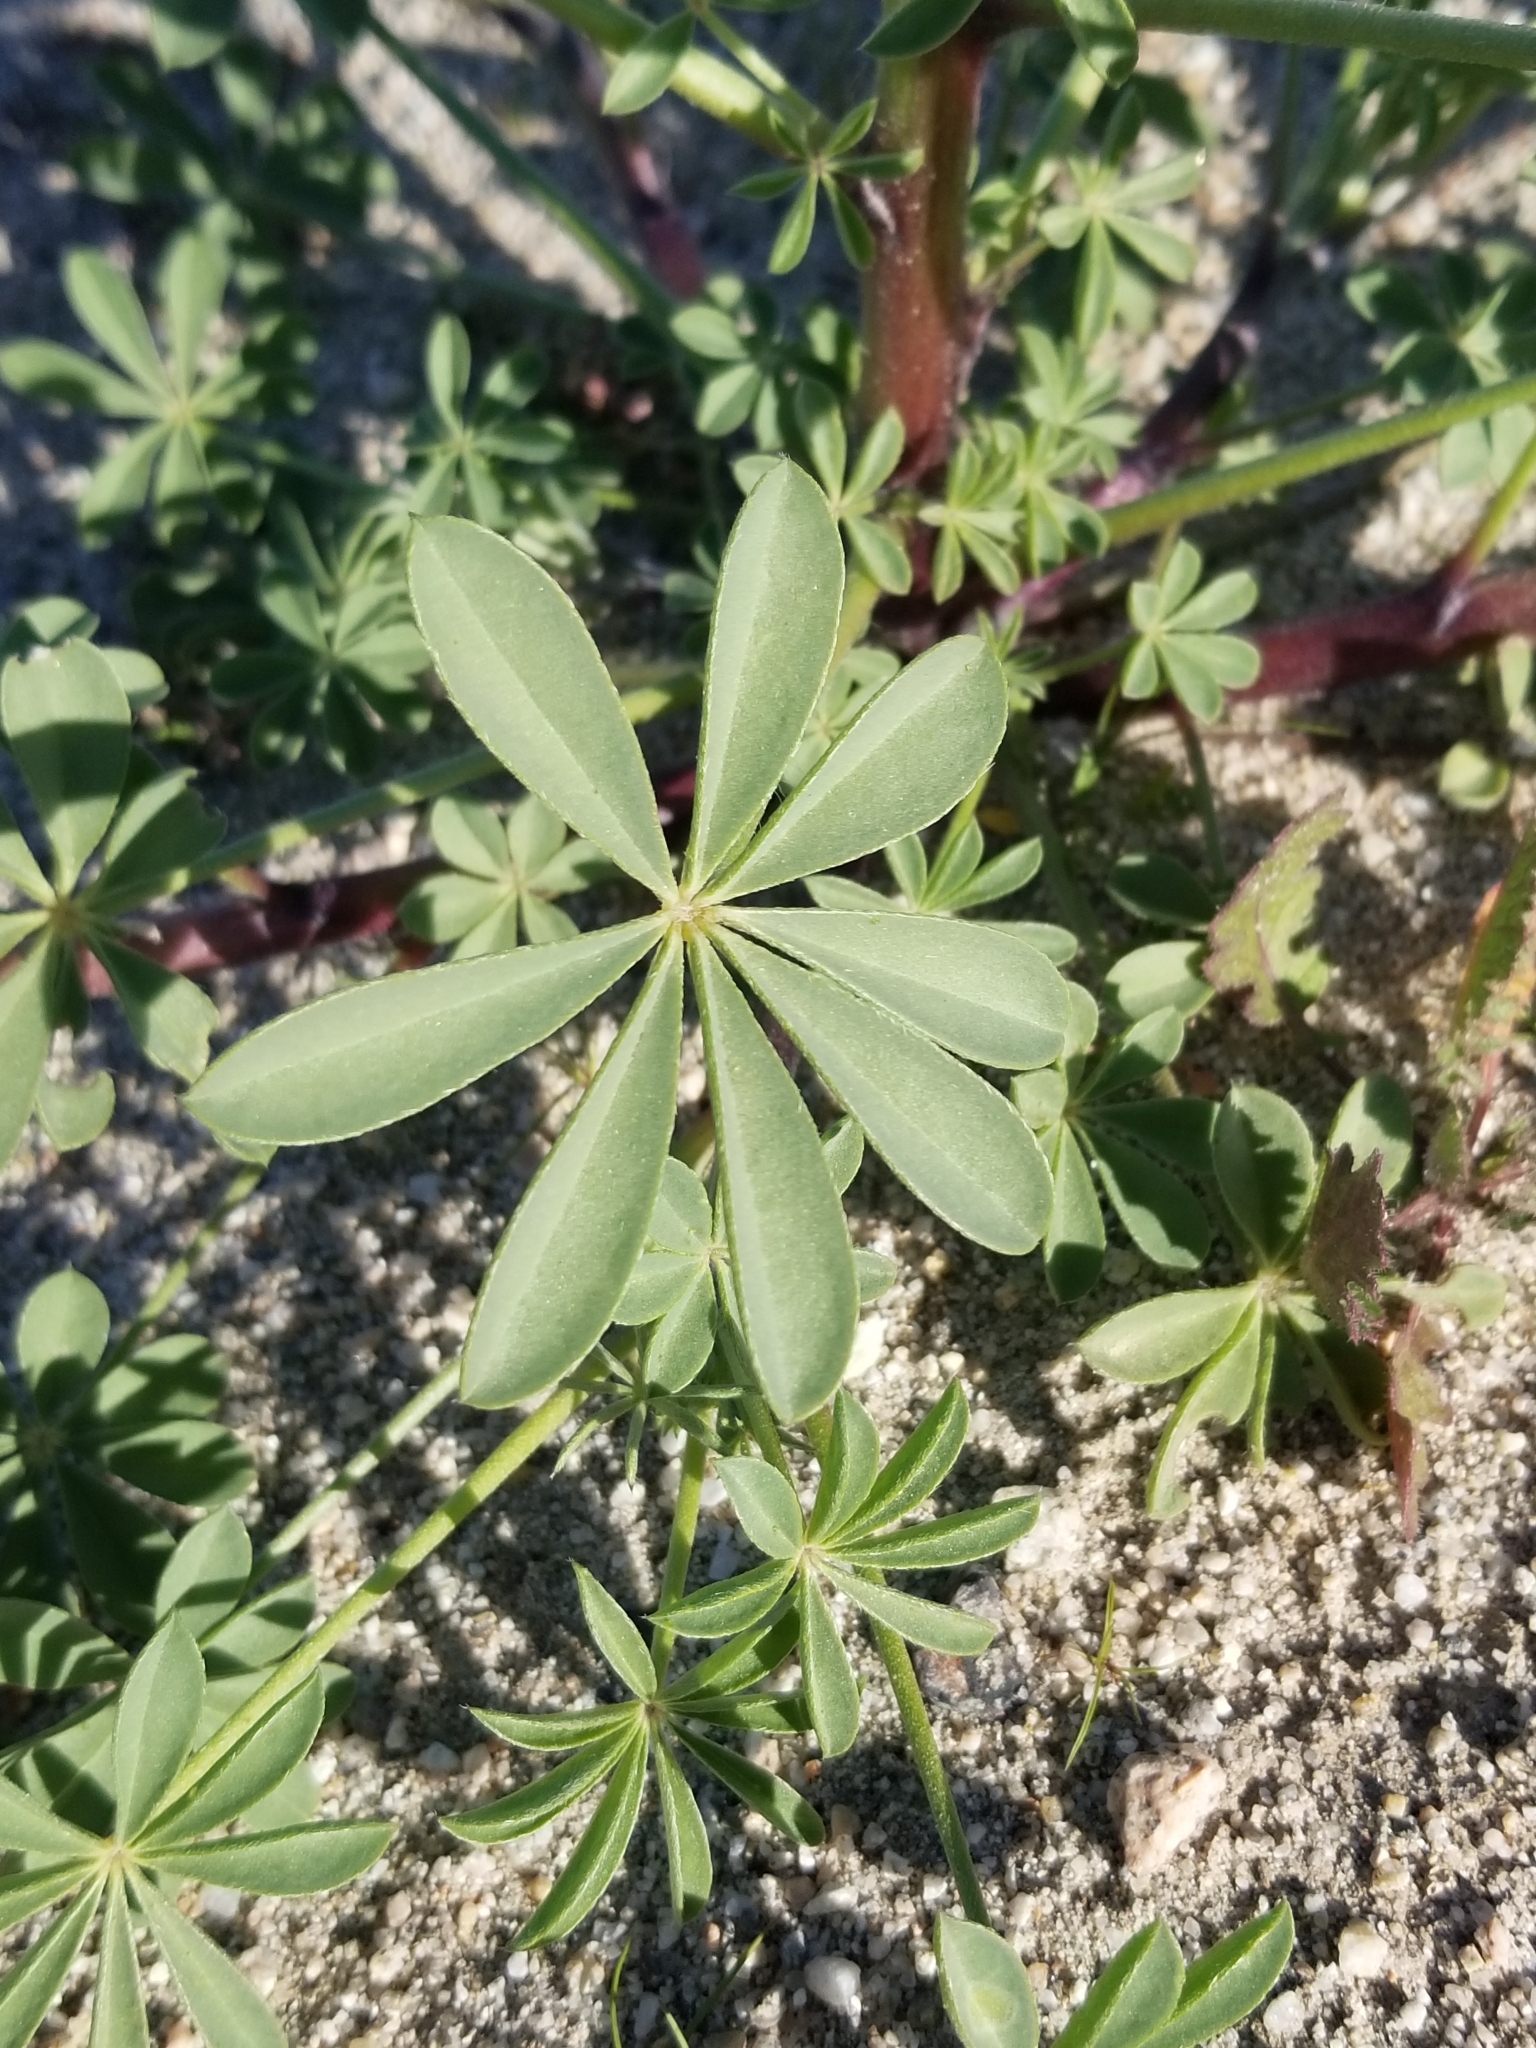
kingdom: Plantae
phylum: Tracheophyta
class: Magnoliopsida
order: Fabales
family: Fabaceae
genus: Lupinus
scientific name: Lupinus arizonicus
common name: Arizona lupine
